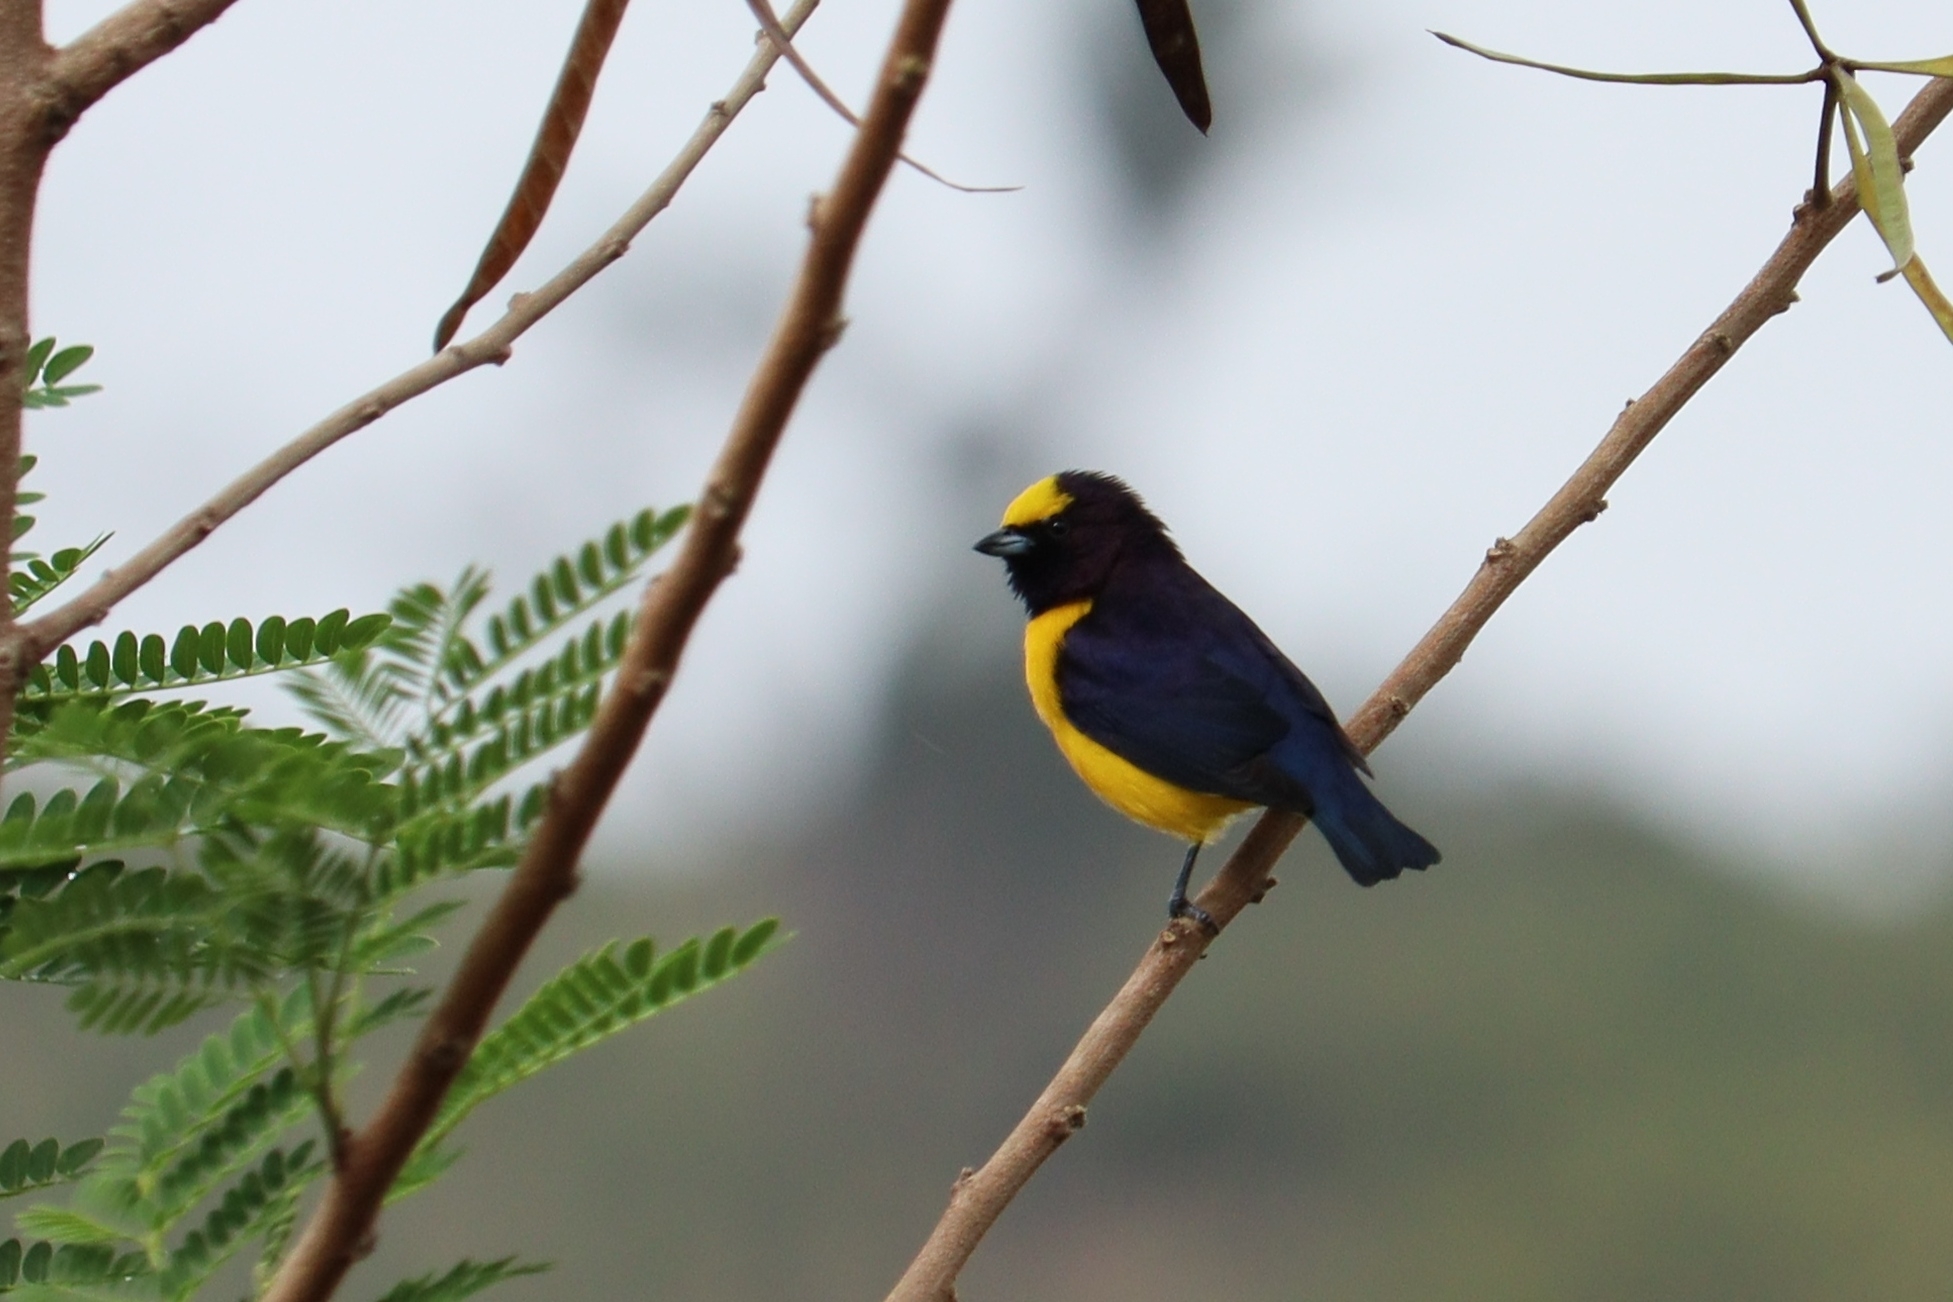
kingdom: Animalia
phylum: Chordata
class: Aves
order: Passeriformes
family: Fringillidae
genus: Euphonia
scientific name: Euphonia chlorotica
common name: Purple-throated euphonia
